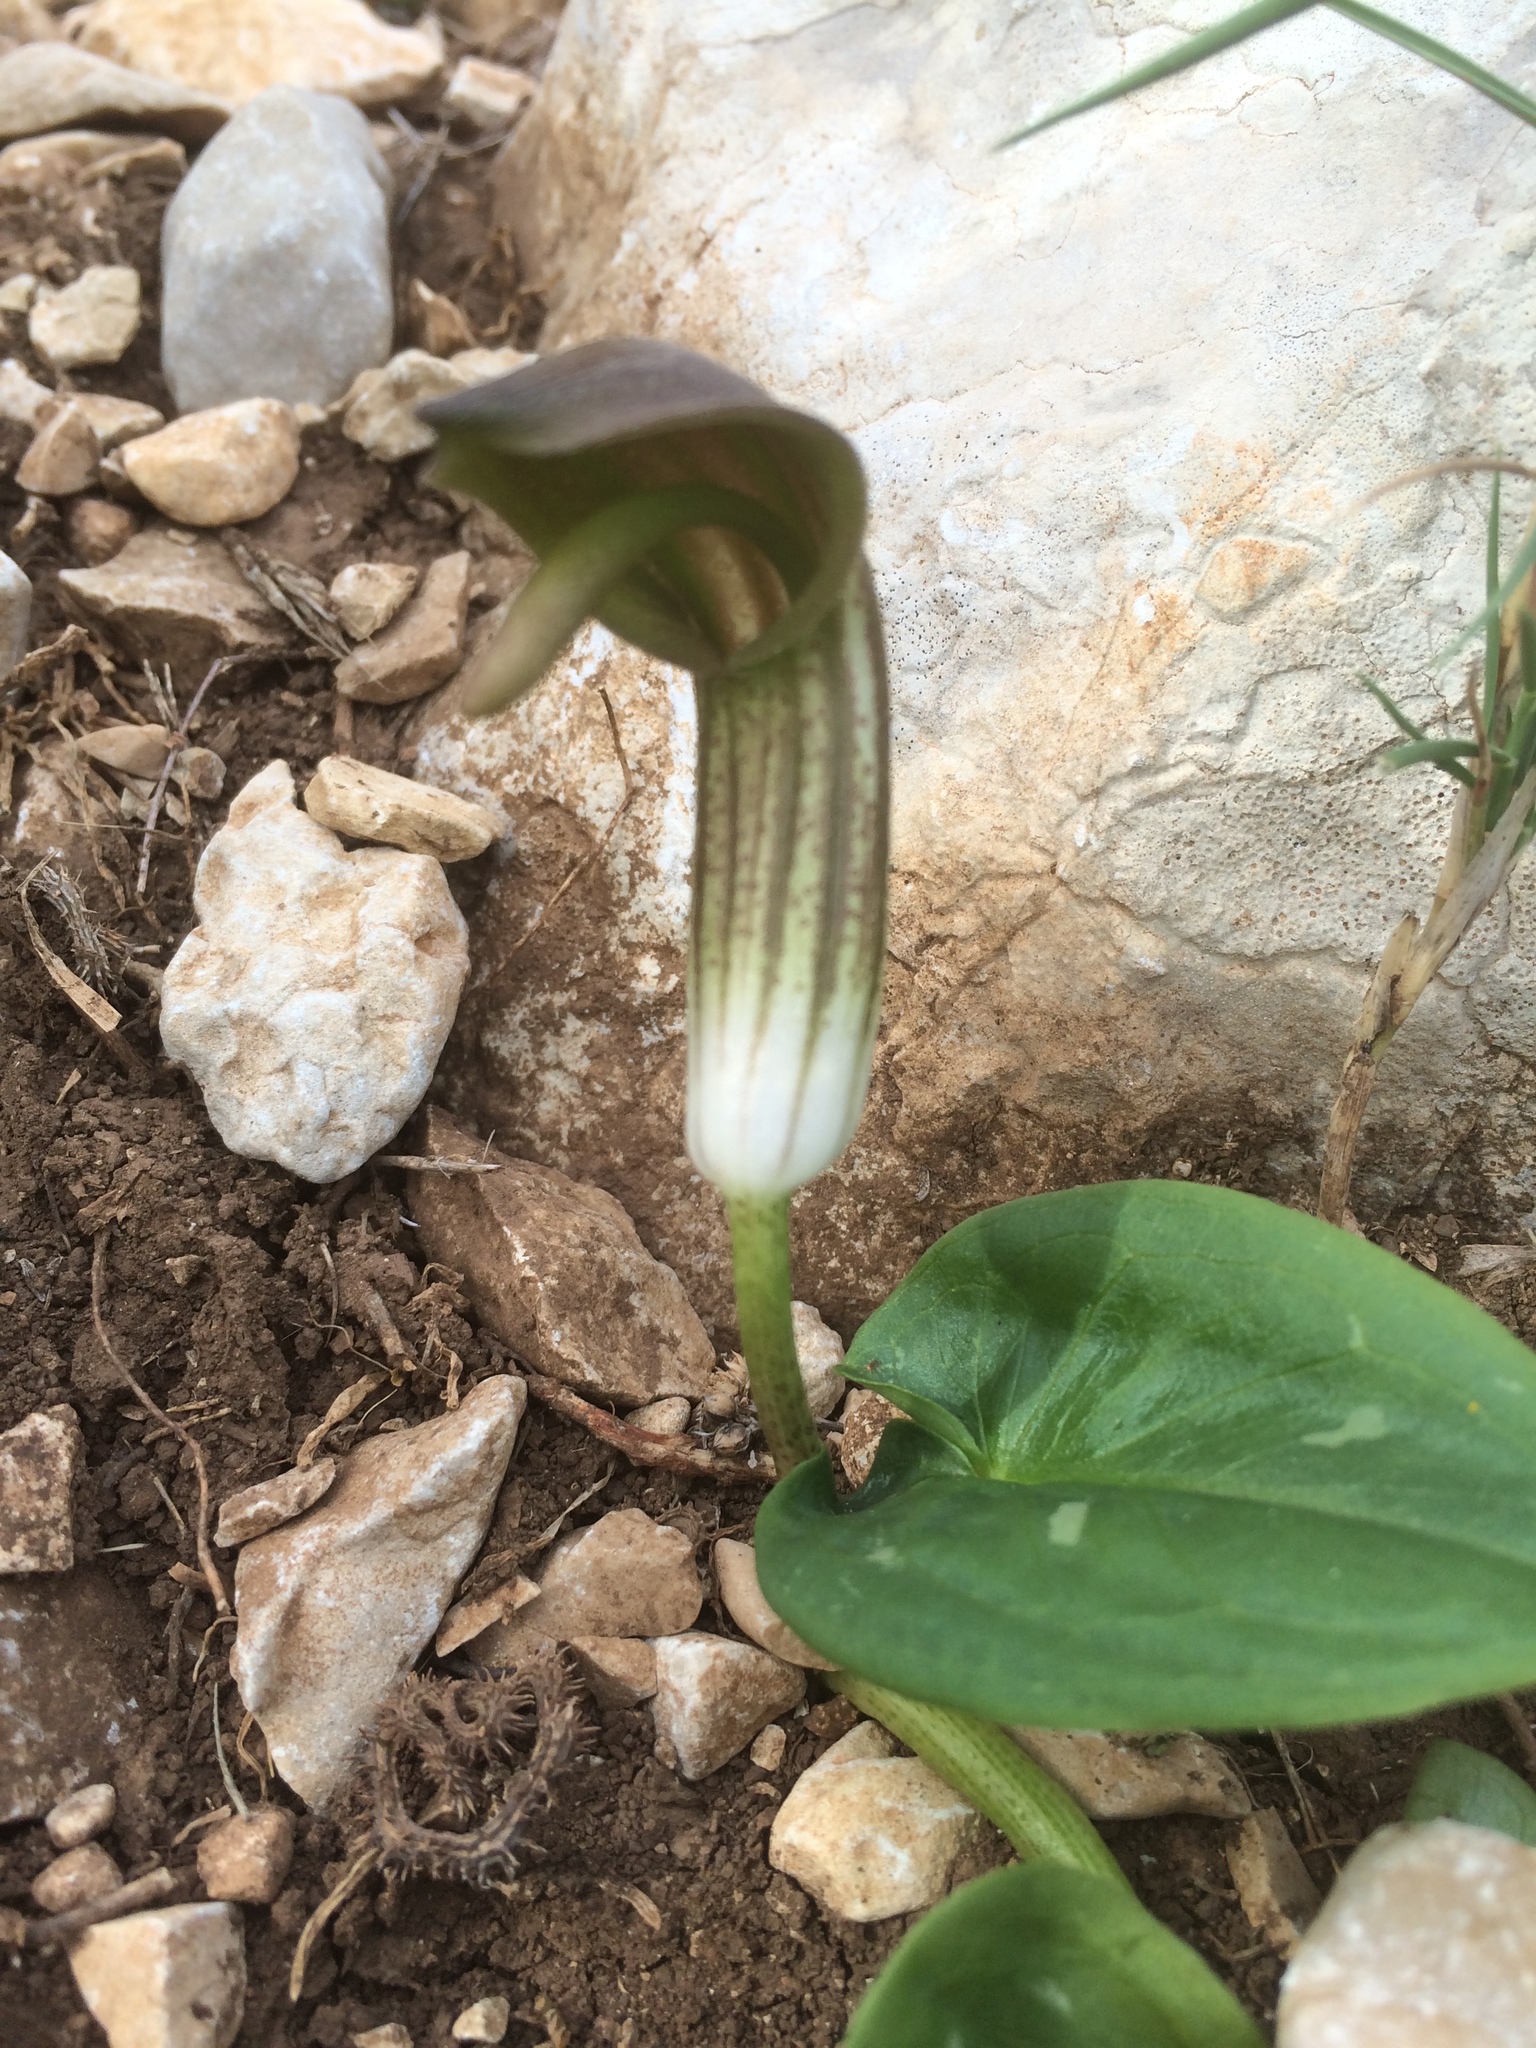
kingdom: Plantae
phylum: Tracheophyta
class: Liliopsida
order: Alismatales
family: Araceae
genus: Arisarum
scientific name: Arisarum vulgare
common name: Common arisarum
